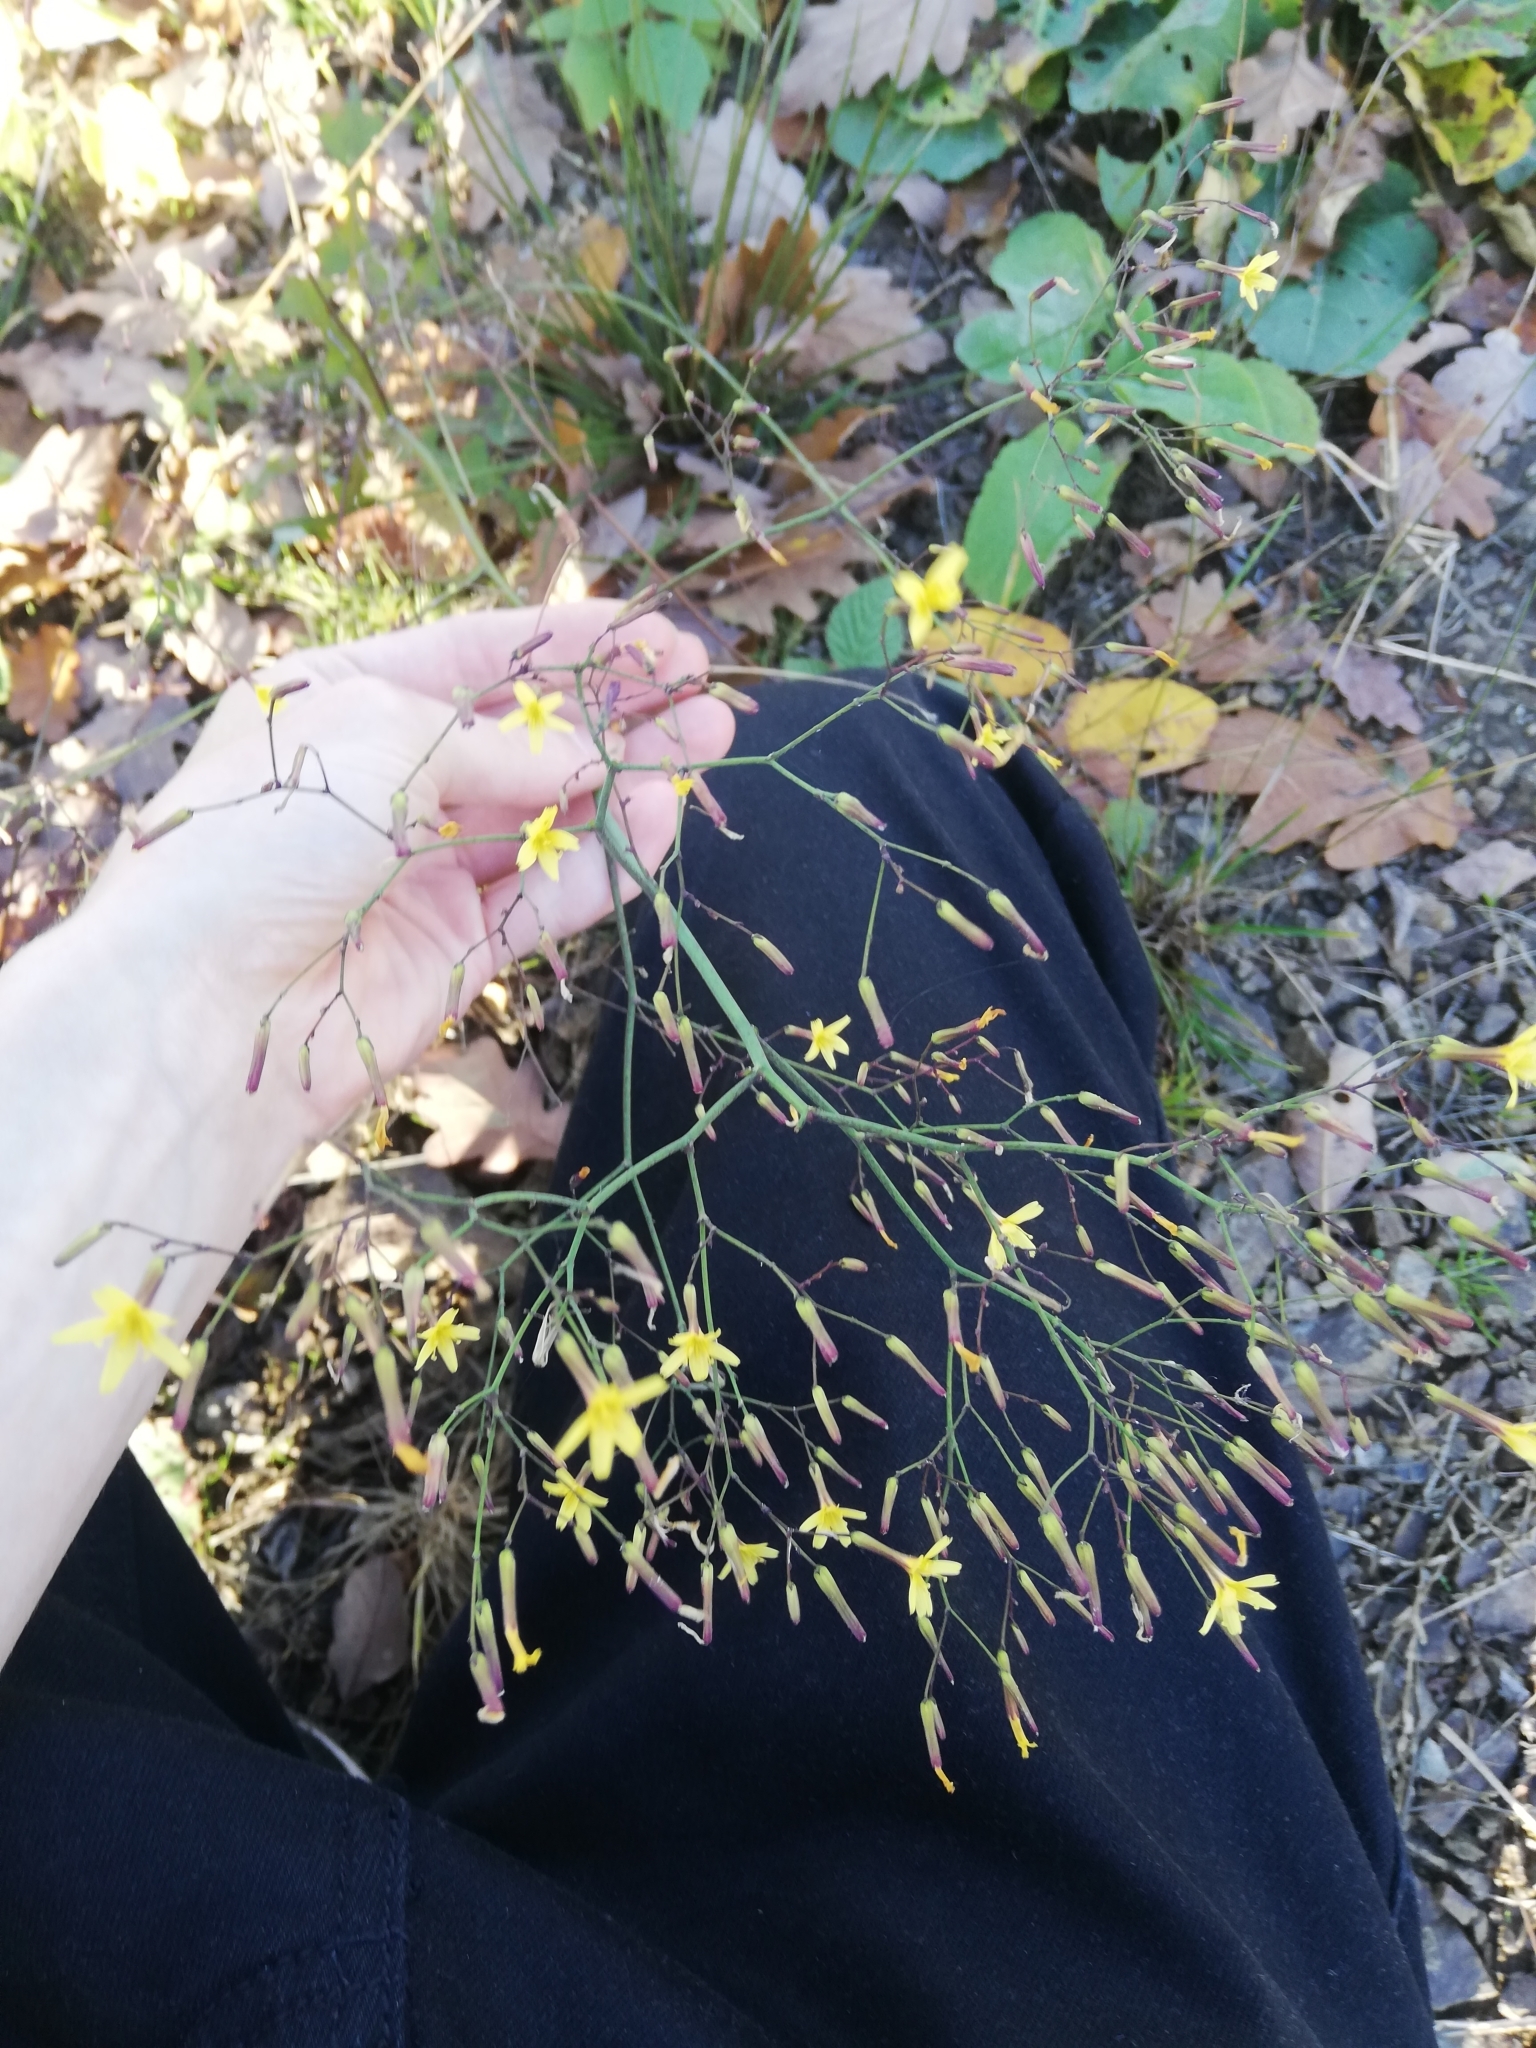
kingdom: Plantae
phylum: Tracheophyta
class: Magnoliopsida
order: Asterales
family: Asteraceae
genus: Mycelis
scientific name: Mycelis muralis
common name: Wall lettuce
